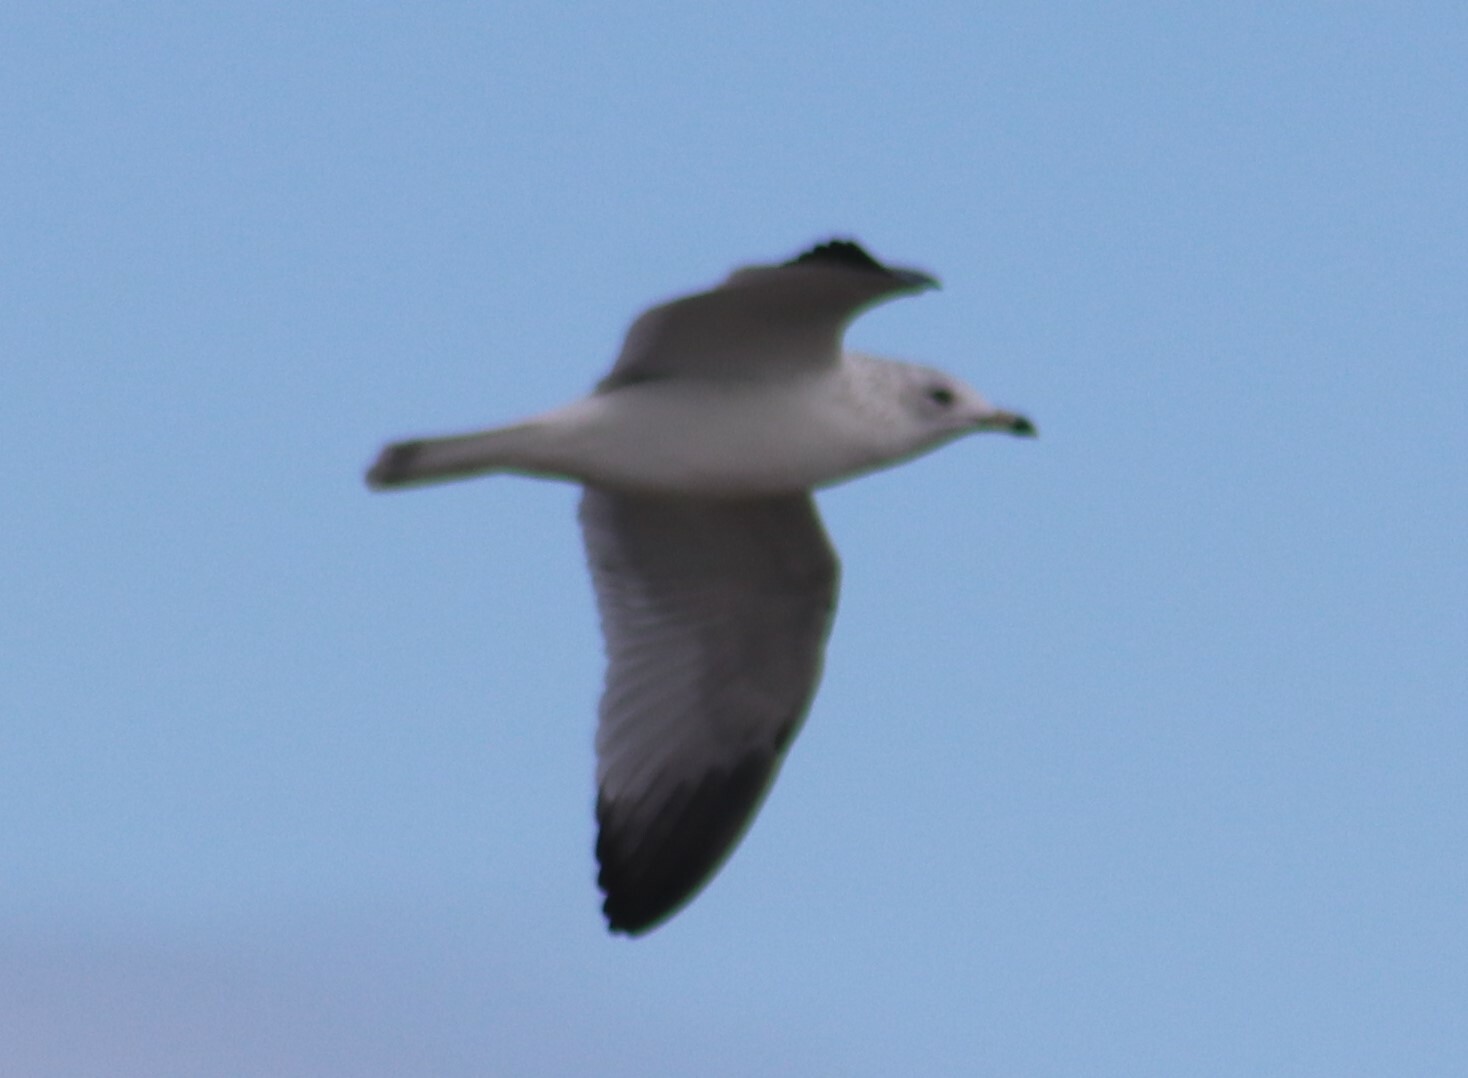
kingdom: Animalia
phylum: Chordata
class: Aves
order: Charadriiformes
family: Laridae
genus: Larus
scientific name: Larus delawarensis
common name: Ring-billed gull
